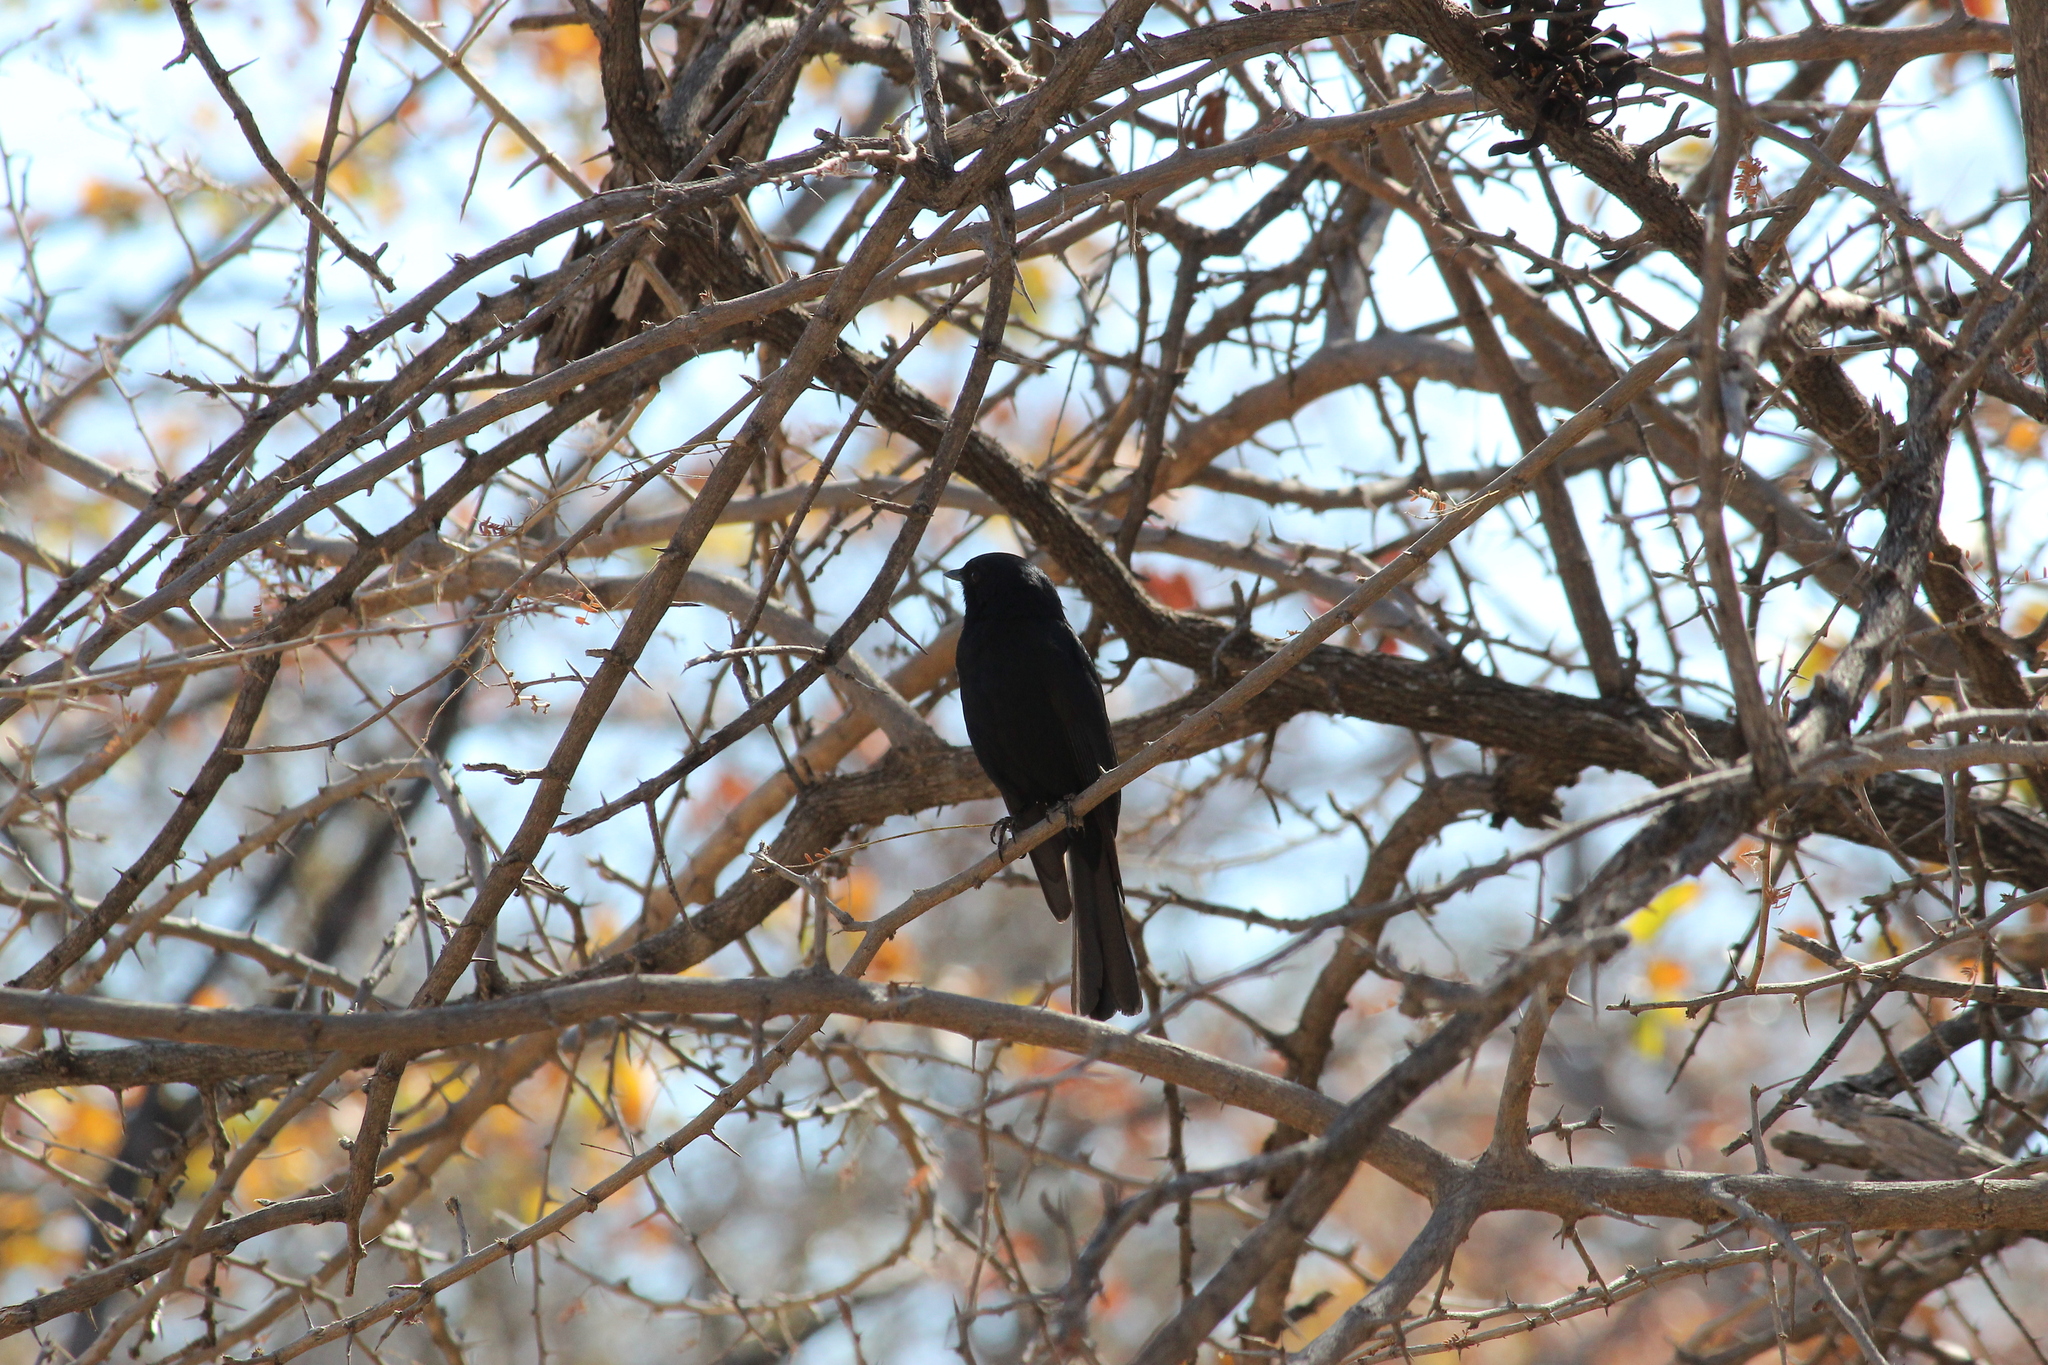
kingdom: Animalia
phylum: Chordata
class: Aves
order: Passeriformes
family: Muscicapidae
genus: Melaenornis
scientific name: Melaenornis pammelaina
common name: Southern black flycatcher
